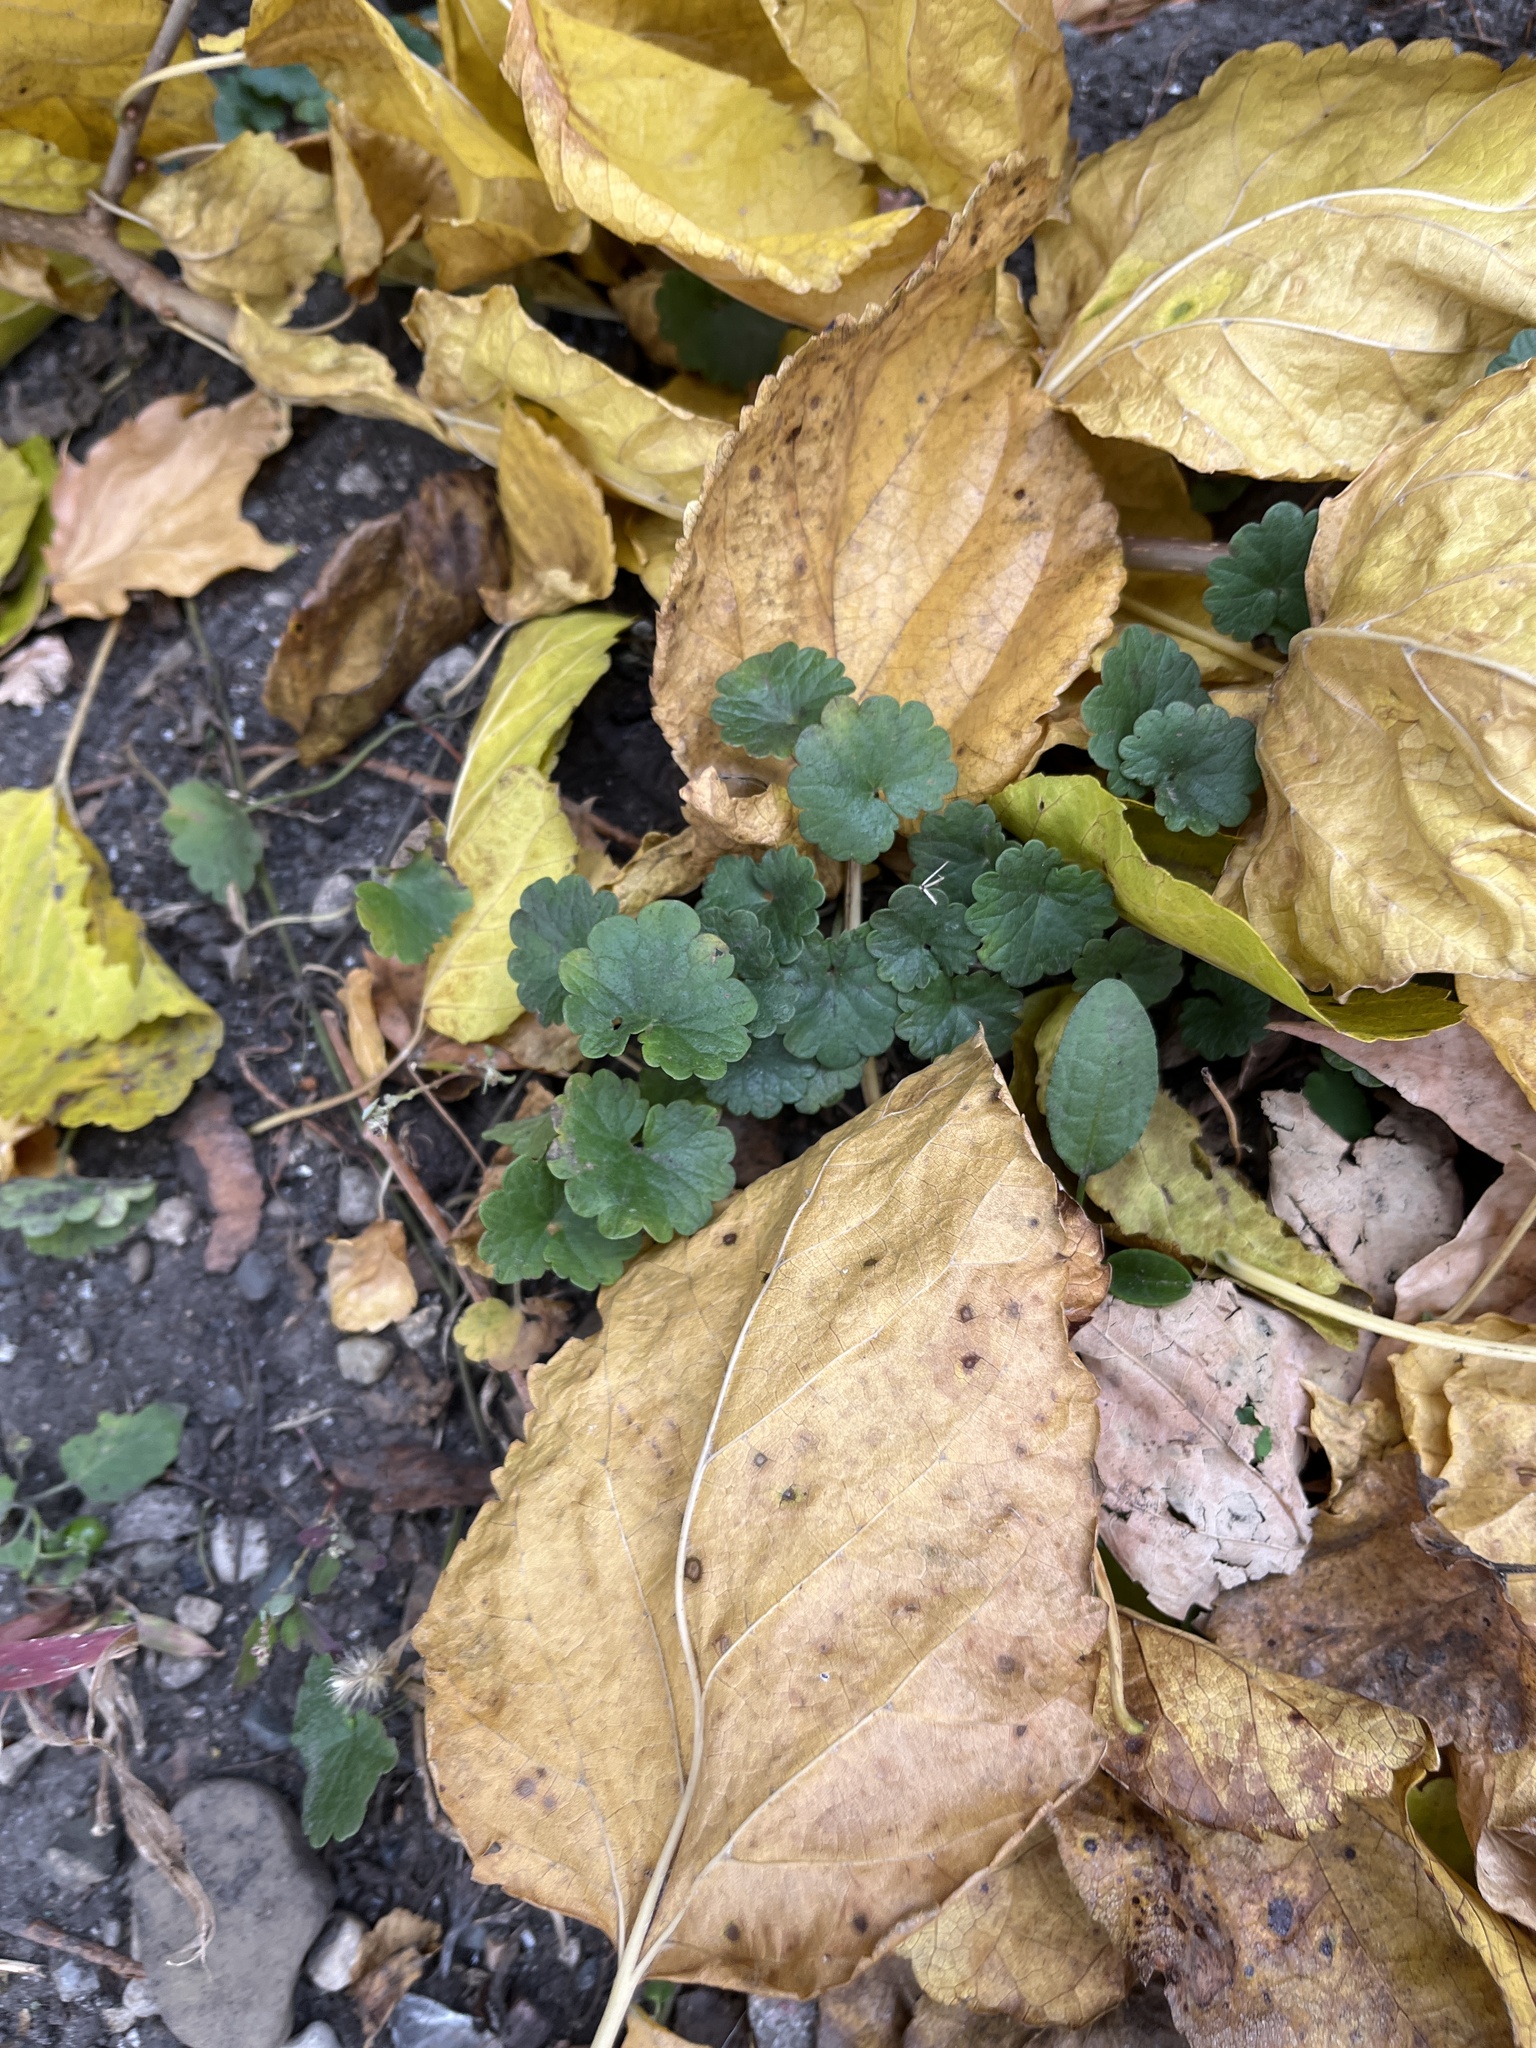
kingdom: Plantae
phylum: Tracheophyta
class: Magnoliopsida
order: Lamiales
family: Lamiaceae
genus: Glechoma
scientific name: Glechoma hederacea
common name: Ground ivy
